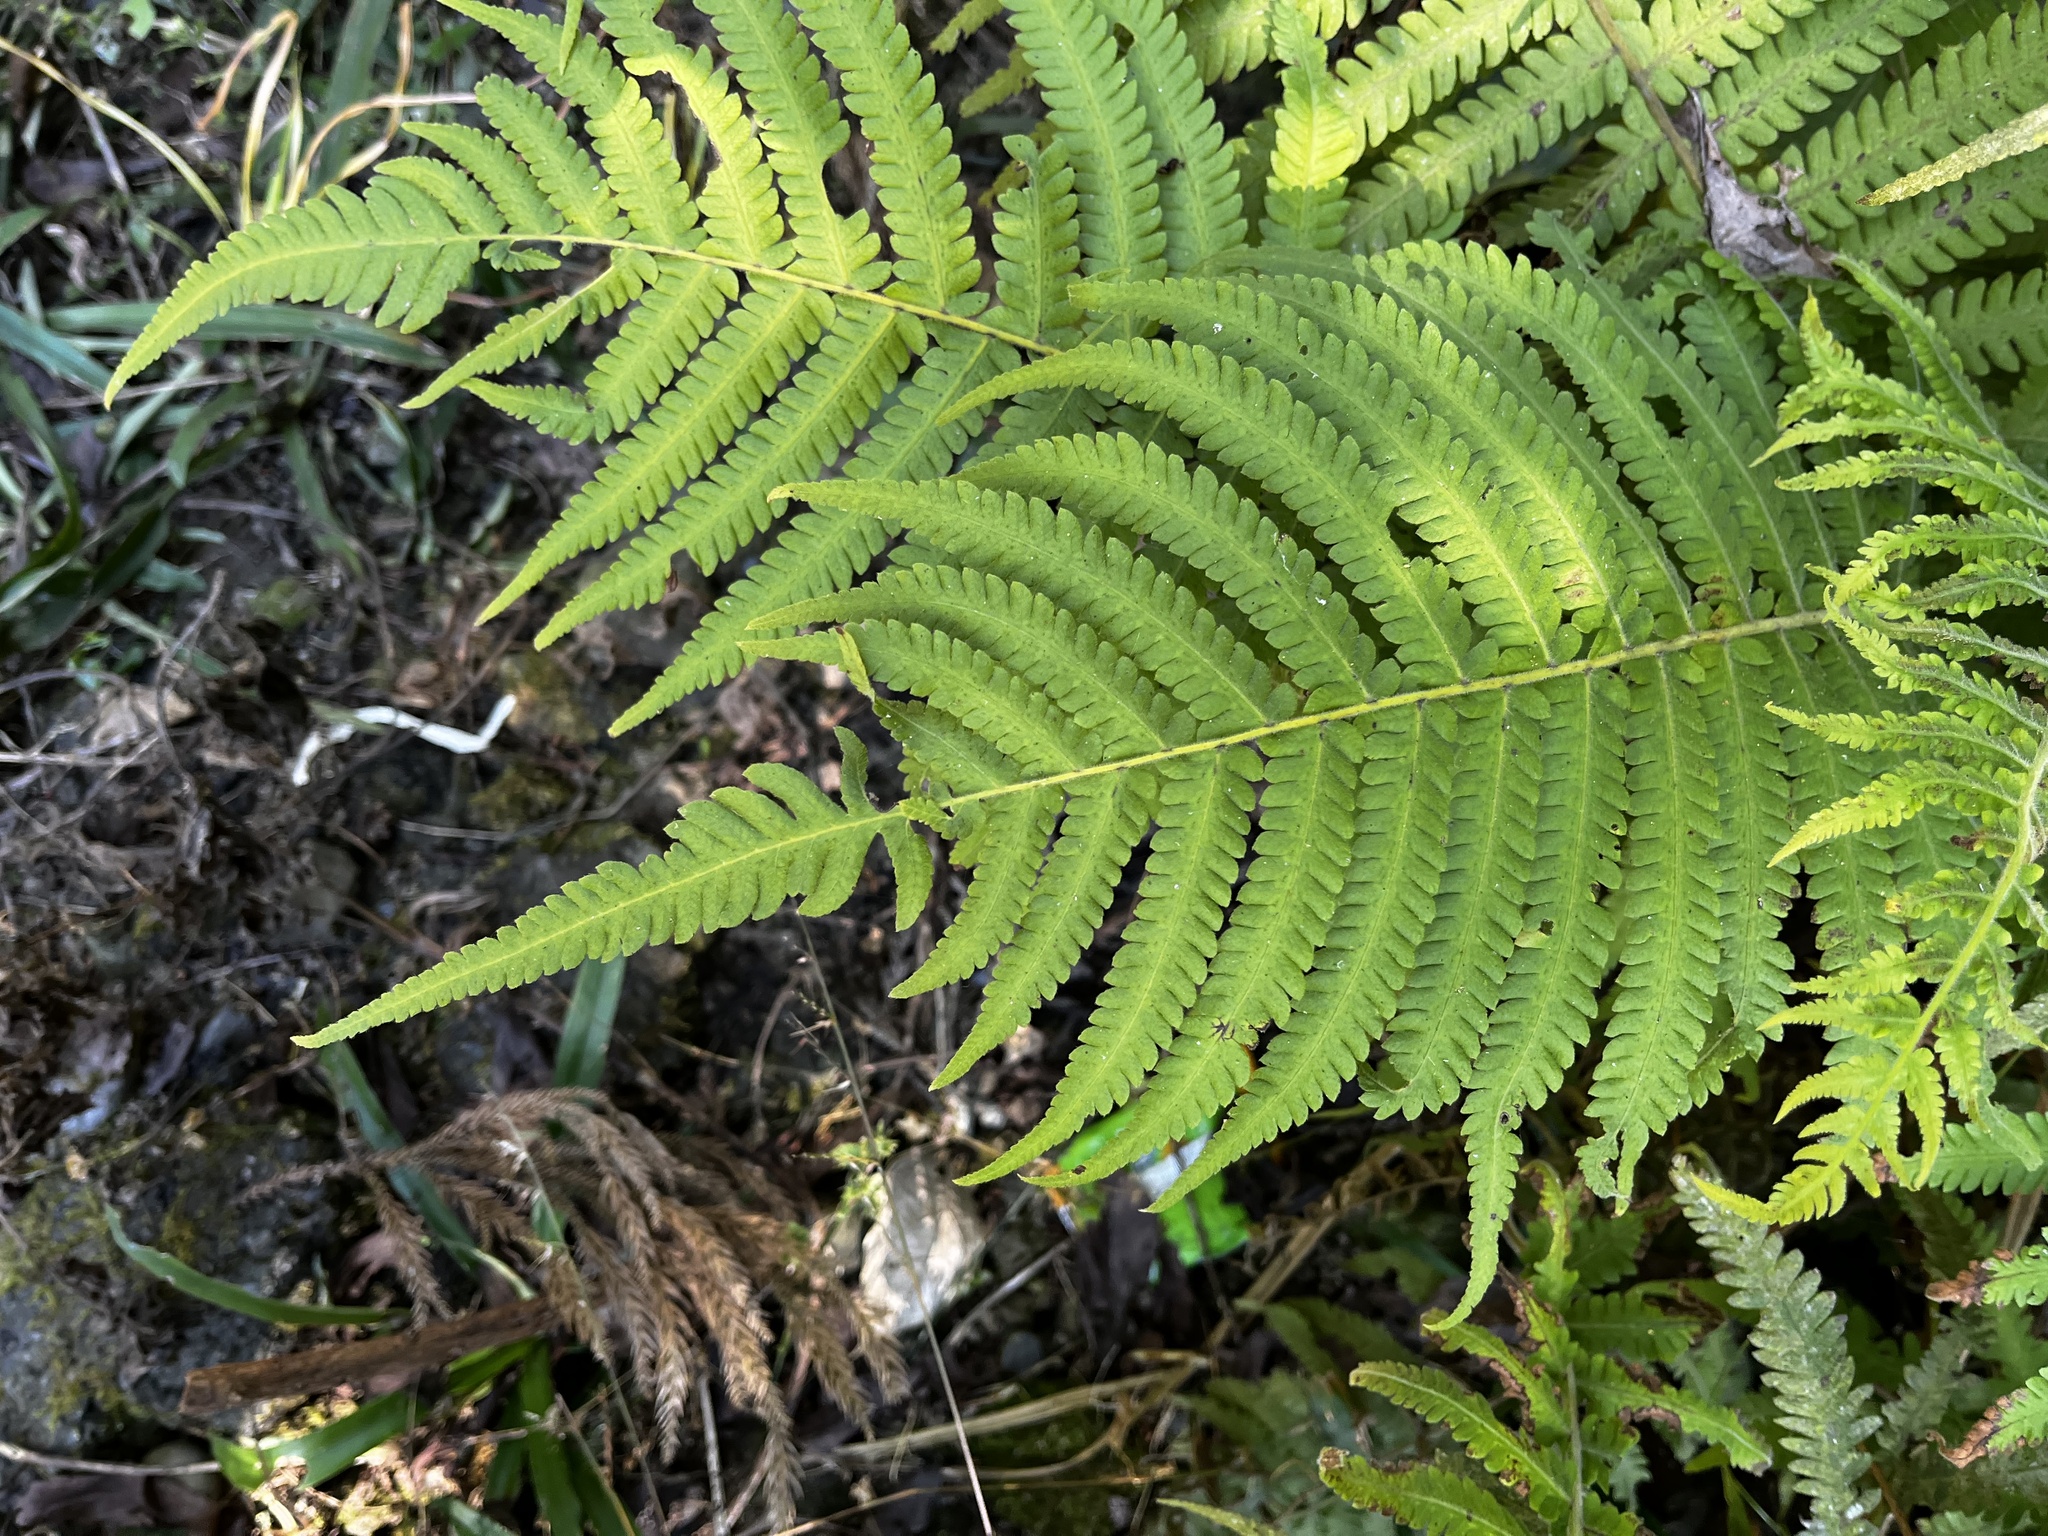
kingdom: Plantae
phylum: Tracheophyta
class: Polypodiopsida
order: Polypodiales
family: Thelypteridaceae
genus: Christella
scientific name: Christella parasitica
